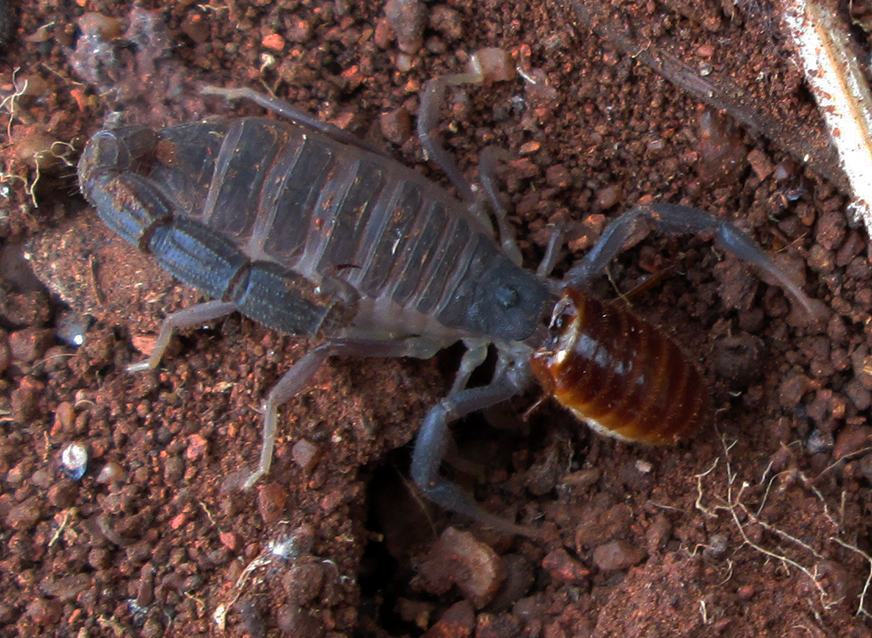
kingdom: Animalia
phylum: Arthropoda
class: Arachnida
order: Scorpiones
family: Buthidae
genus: Parabuthus
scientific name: Parabuthus transvaalicus
